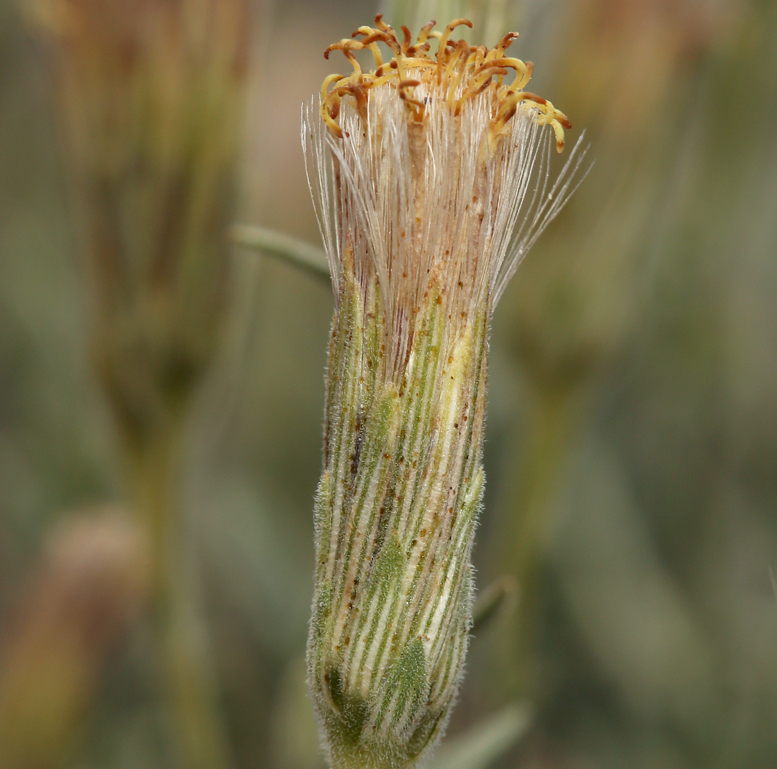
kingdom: Plantae
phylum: Tracheophyta
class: Magnoliopsida
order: Asterales
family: Asteraceae
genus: Brickellia
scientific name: Brickellia oblongifolia
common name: Mojave brickellbush
